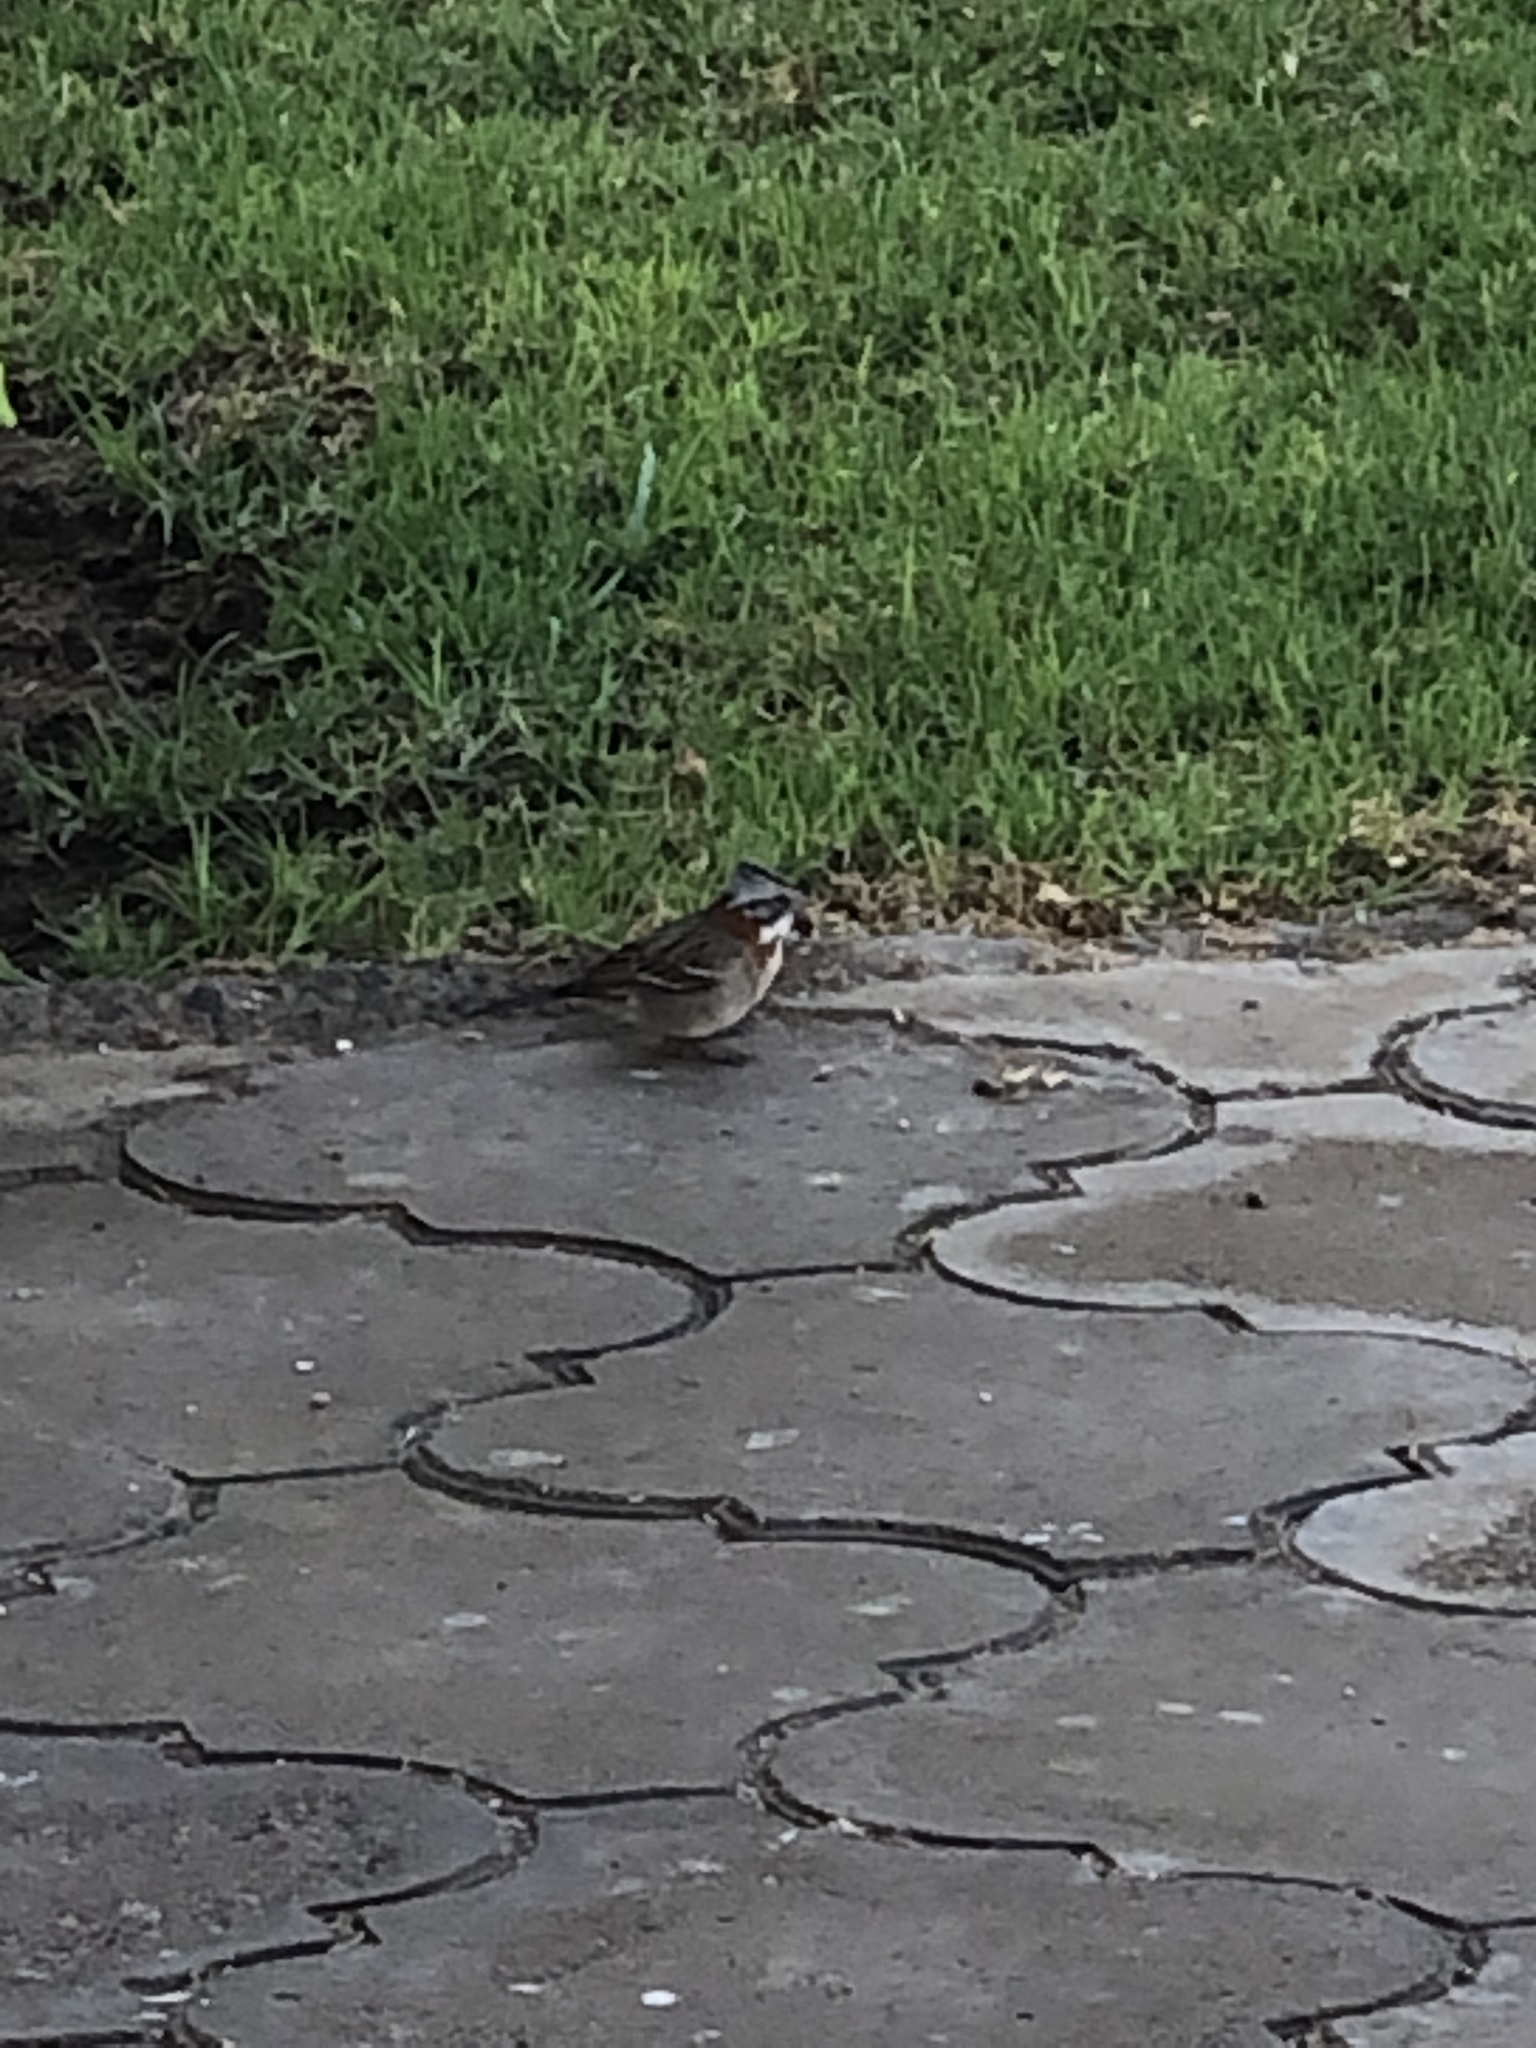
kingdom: Animalia
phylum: Chordata
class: Aves
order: Passeriformes
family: Passerellidae
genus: Zonotrichia
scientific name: Zonotrichia capensis
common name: Rufous-collared sparrow
